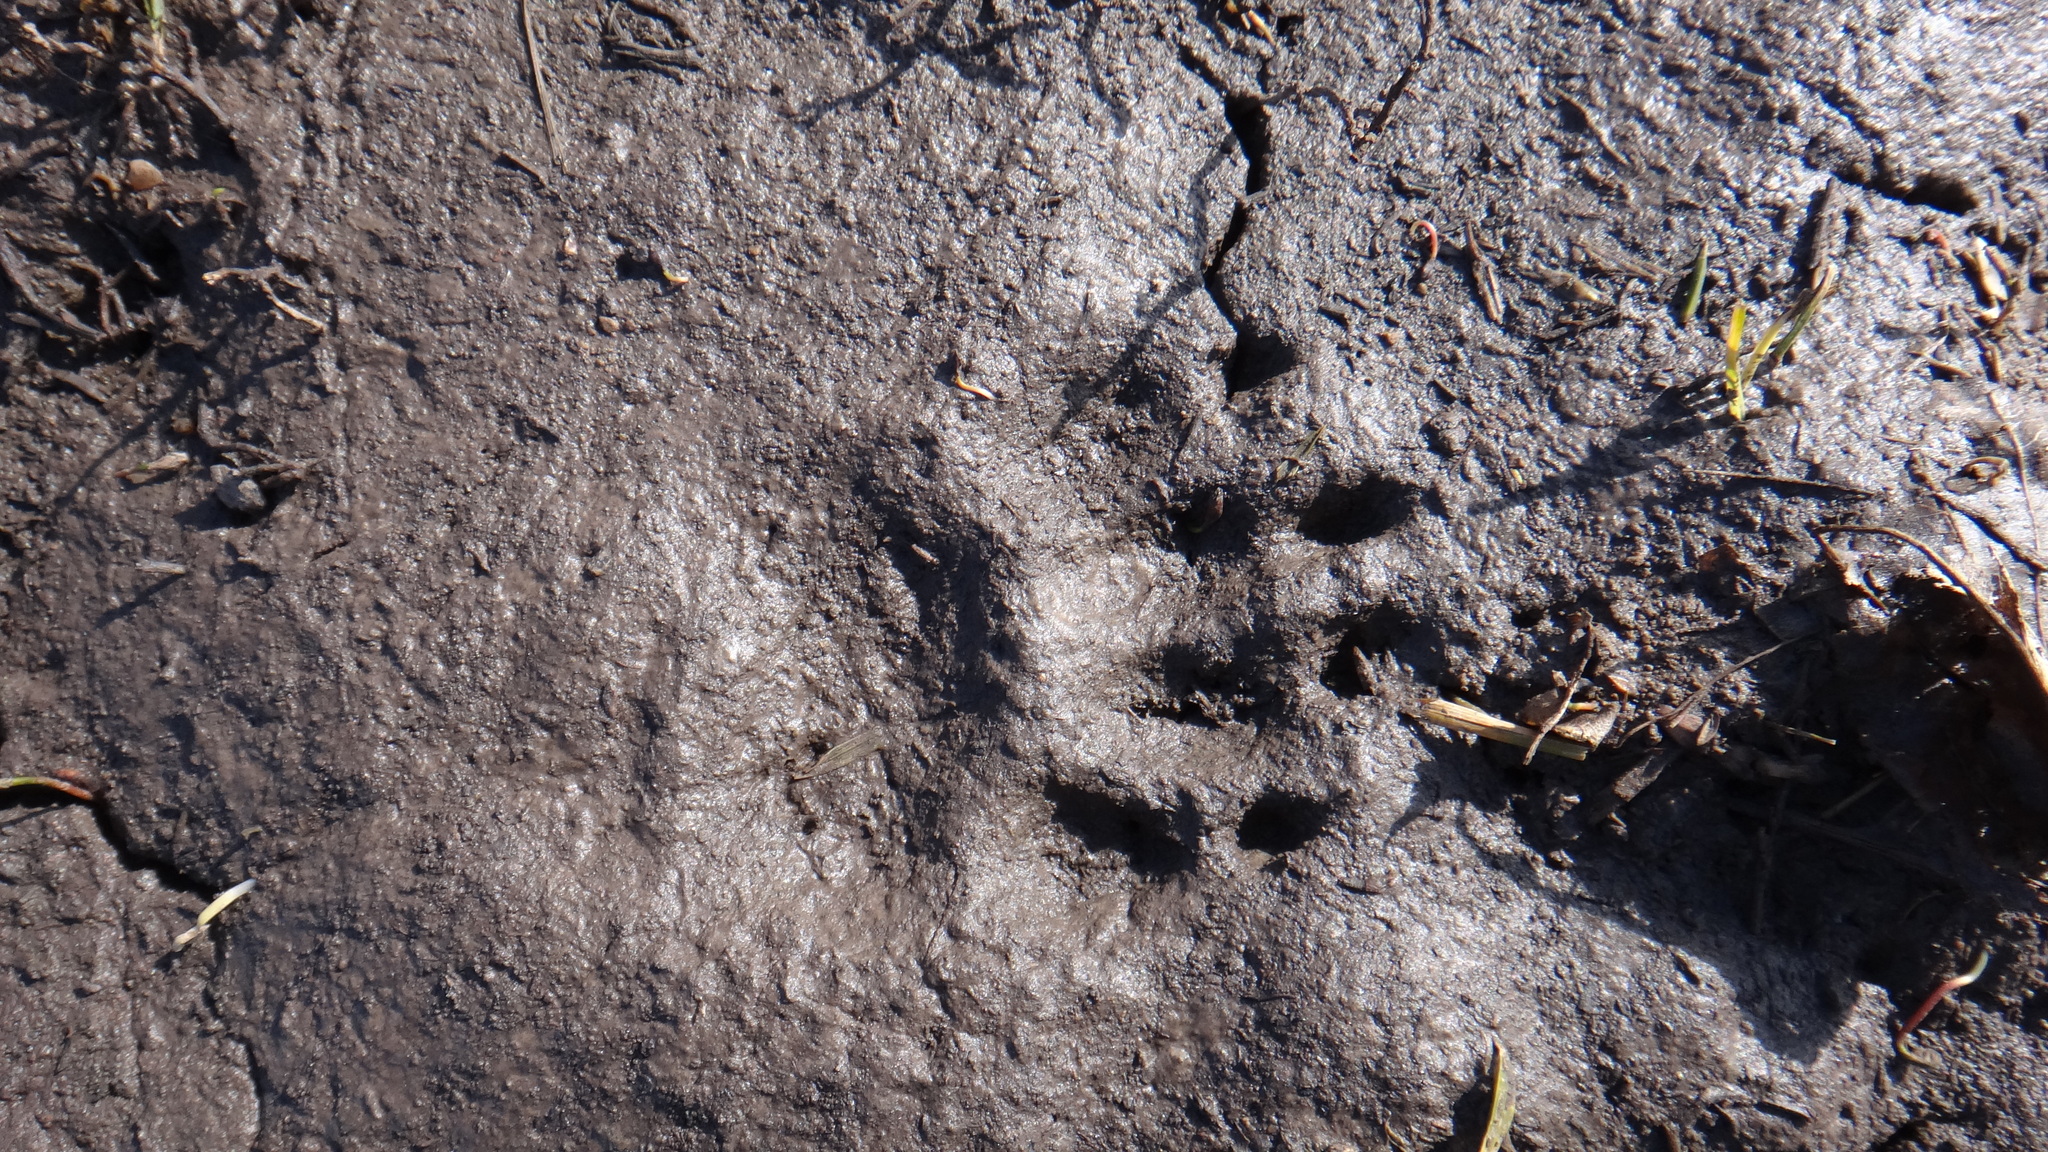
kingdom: Animalia
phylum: Chordata
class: Mammalia
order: Carnivora
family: Mustelidae
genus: Meles
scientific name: Meles meles
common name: Eurasian badger
